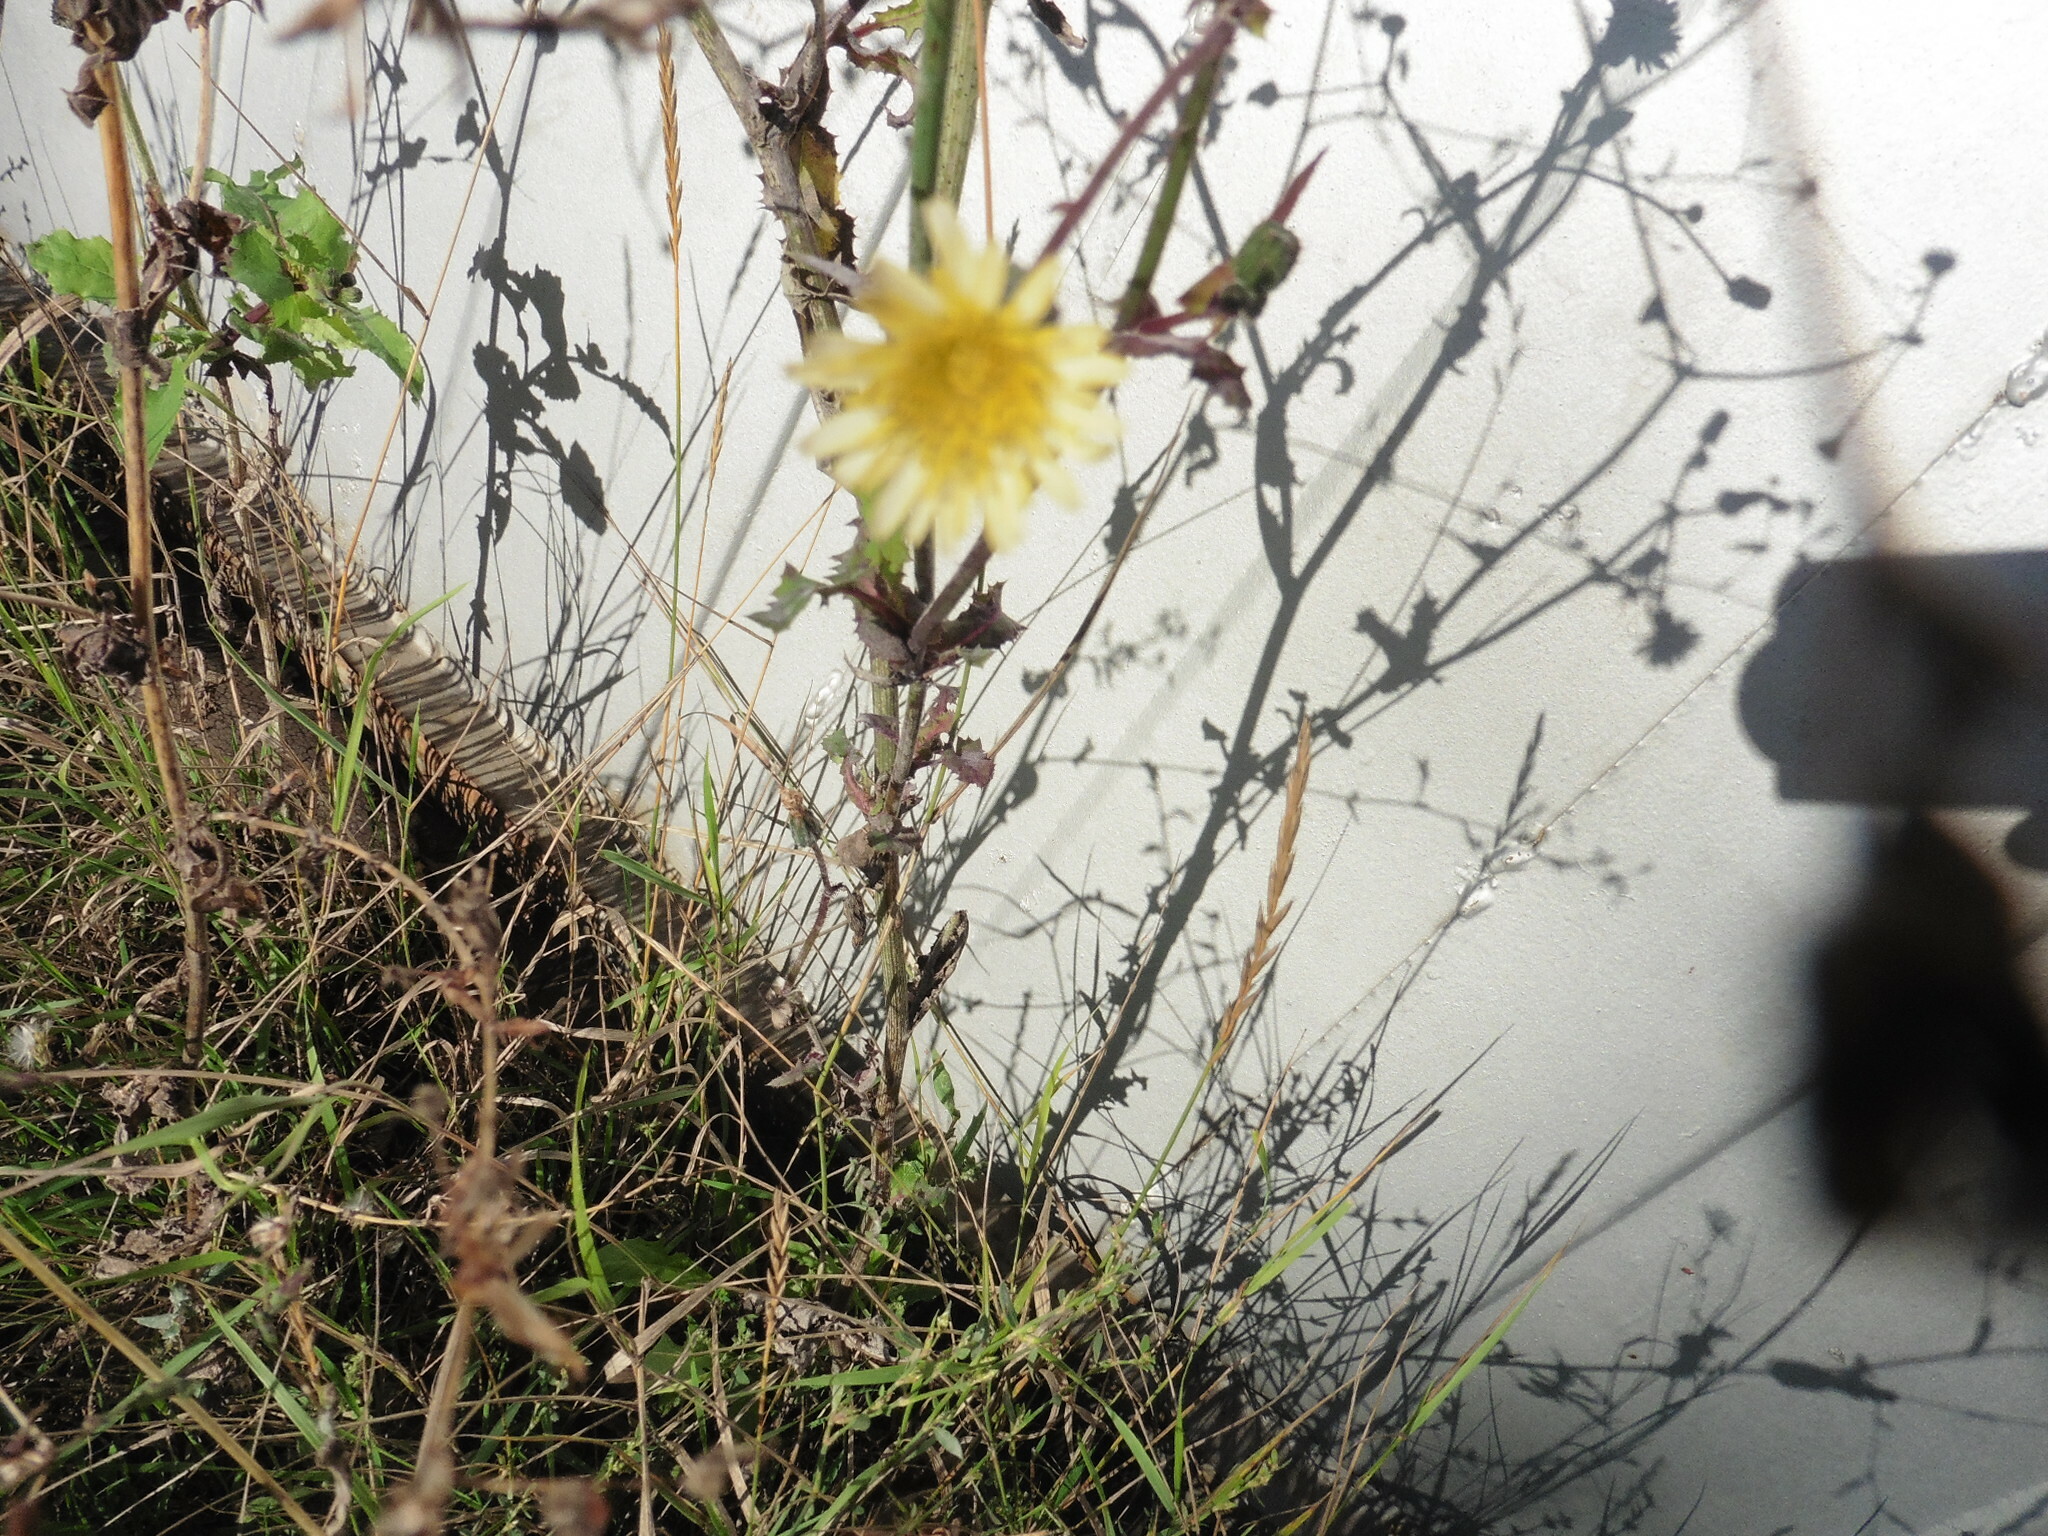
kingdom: Plantae
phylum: Tracheophyta
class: Magnoliopsida
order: Asterales
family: Asteraceae
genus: Lactuca
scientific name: Lactuca serriola
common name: Prickly lettuce
